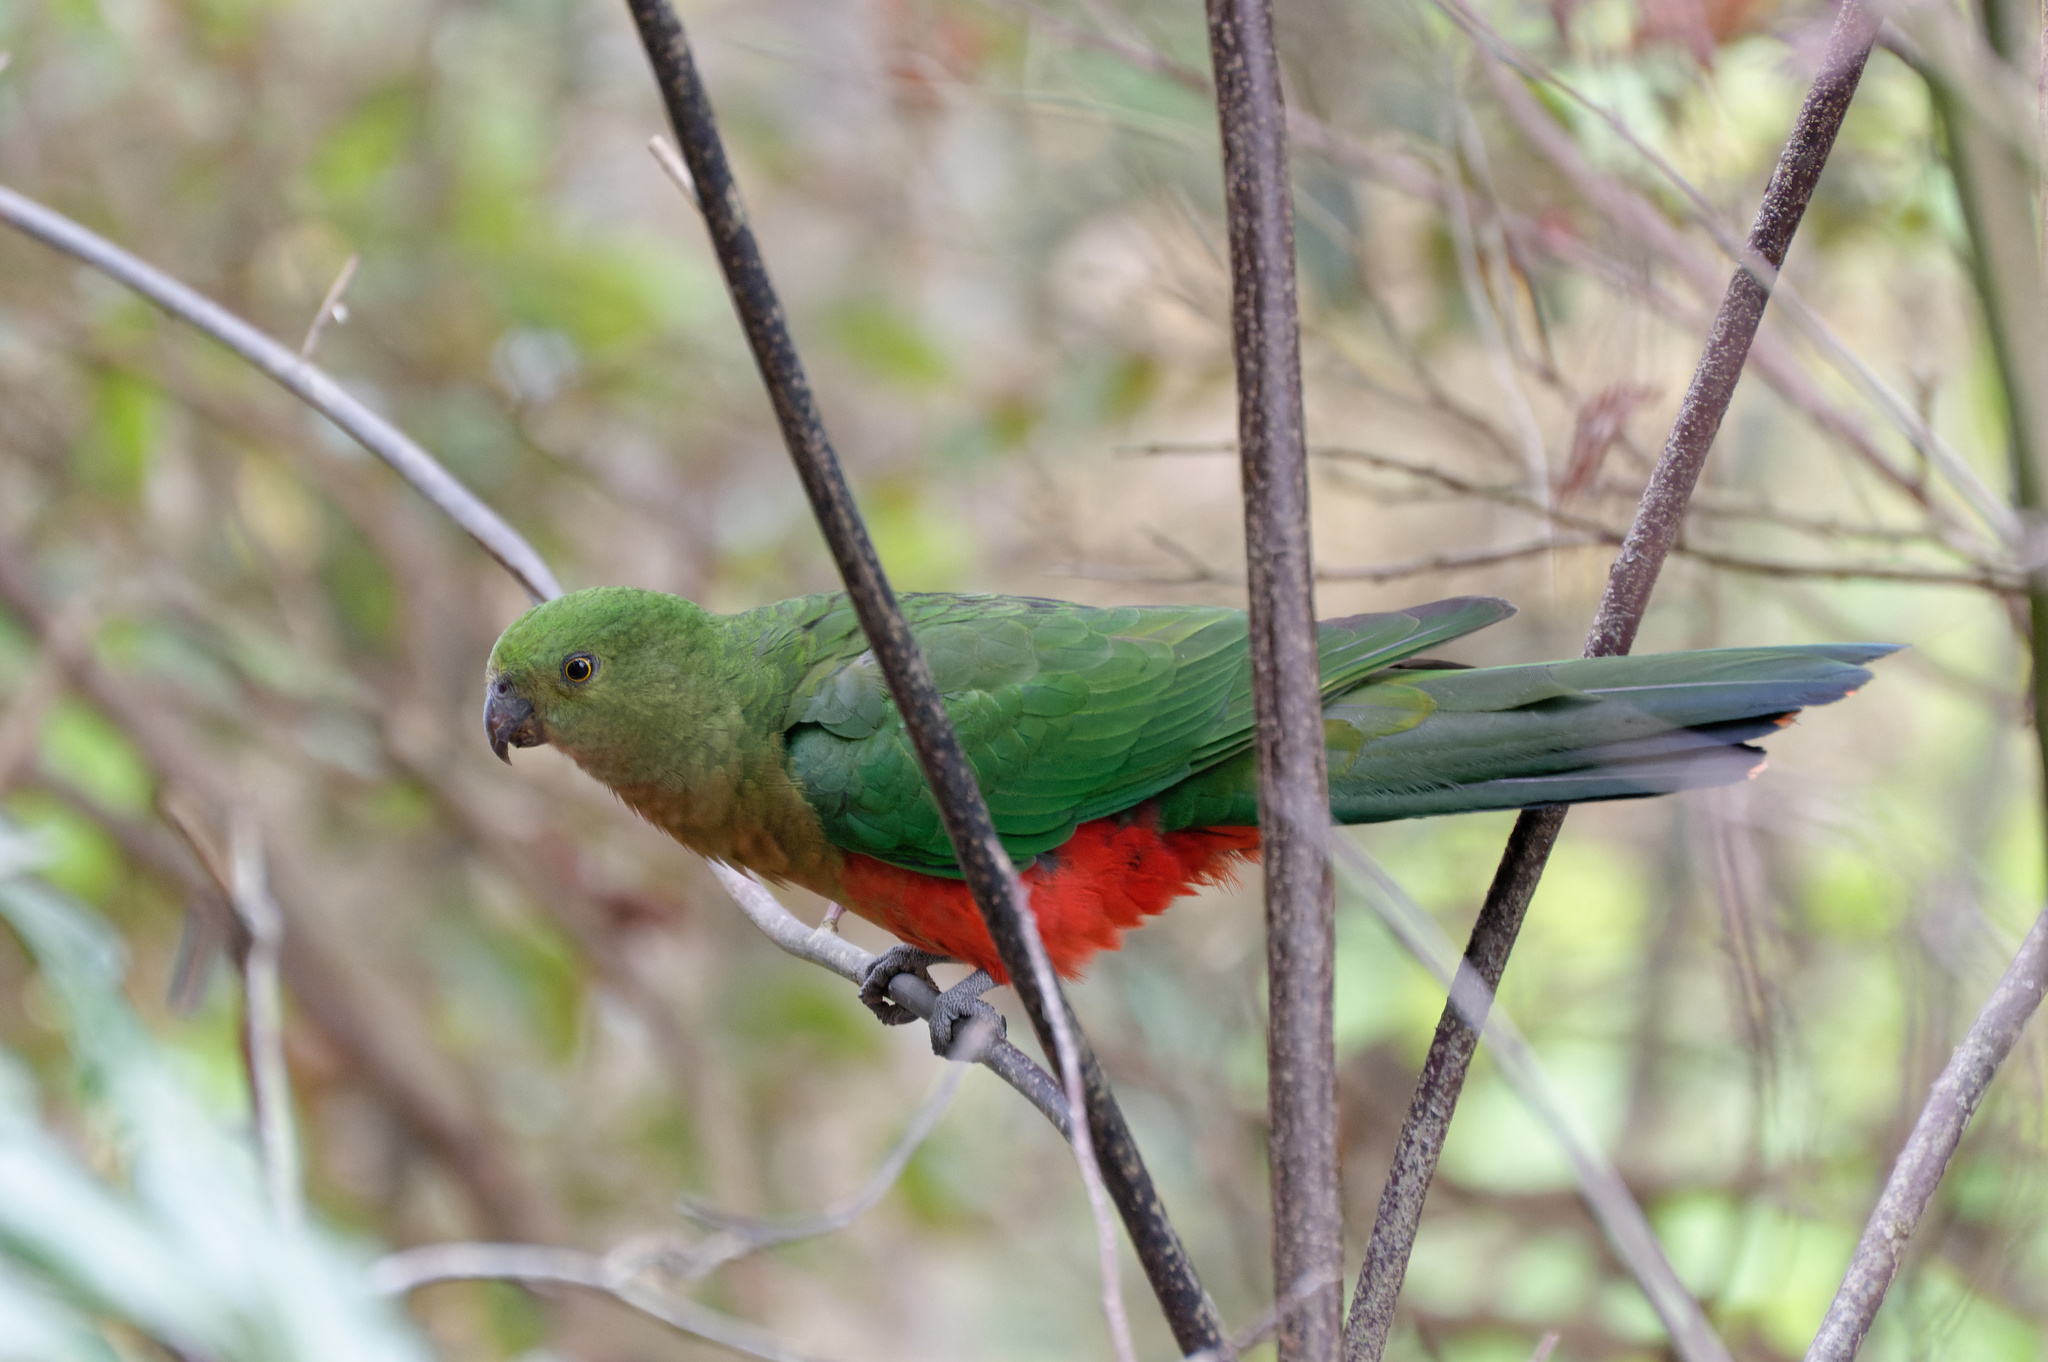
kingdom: Animalia
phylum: Chordata
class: Aves
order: Psittaciformes
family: Psittacidae
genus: Alisterus
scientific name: Alisterus scapularis
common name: Australian king parrot
